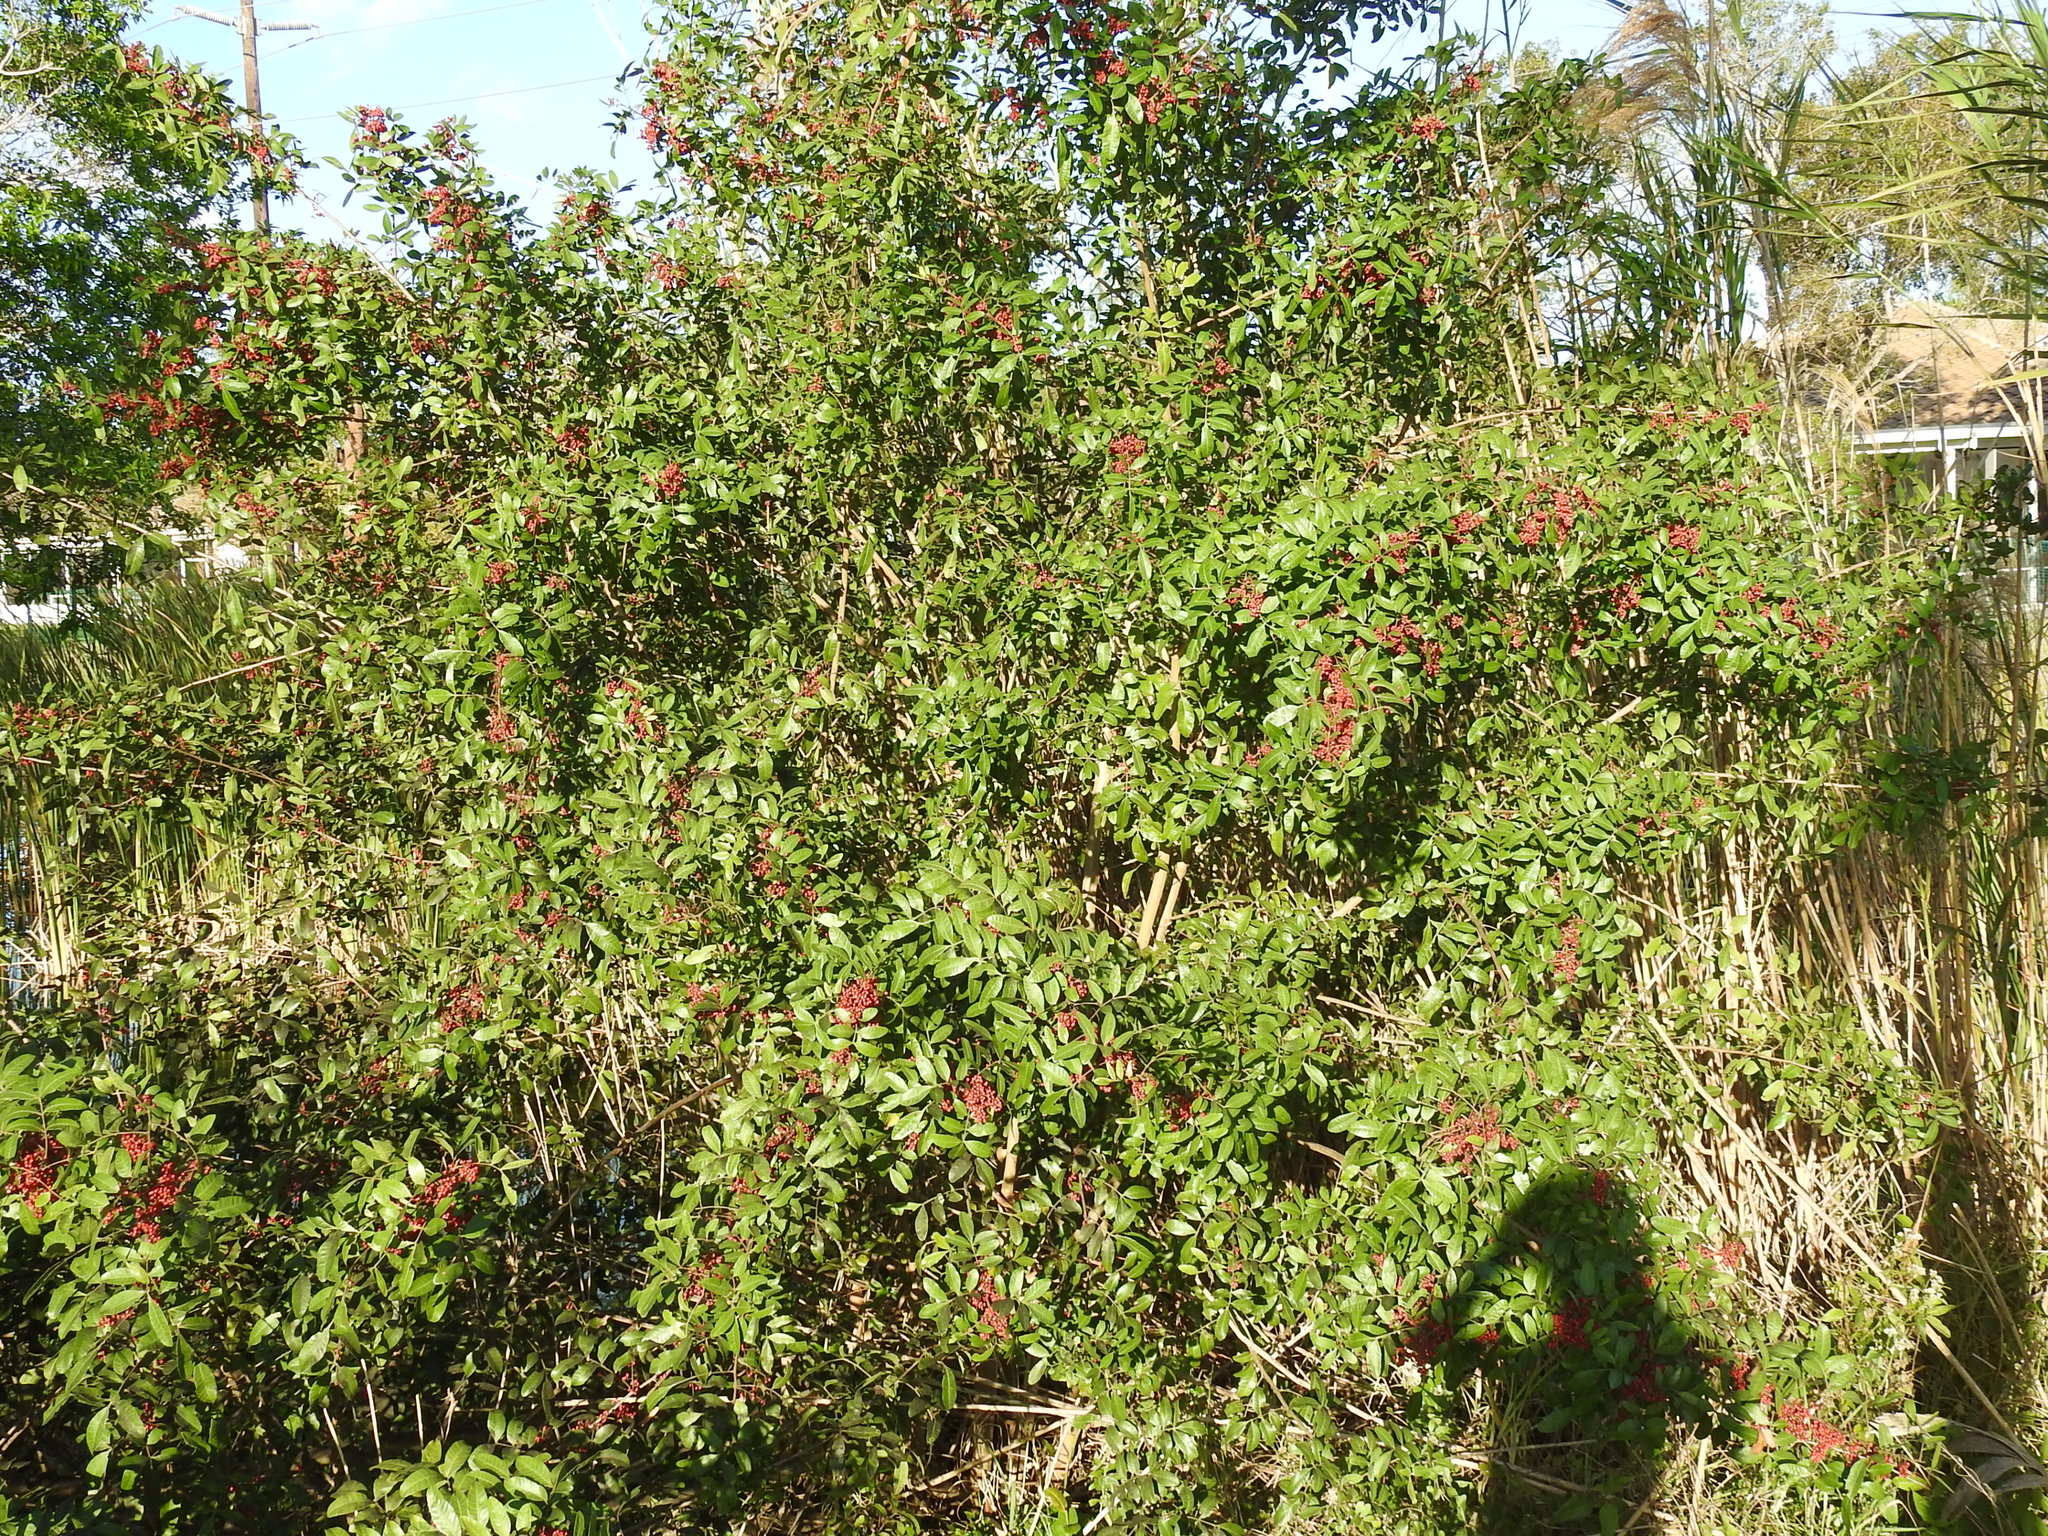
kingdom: Plantae
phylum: Tracheophyta
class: Magnoliopsida
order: Sapindales
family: Anacardiaceae
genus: Schinus
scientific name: Schinus terebinthifolia
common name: Brazilian peppertree
